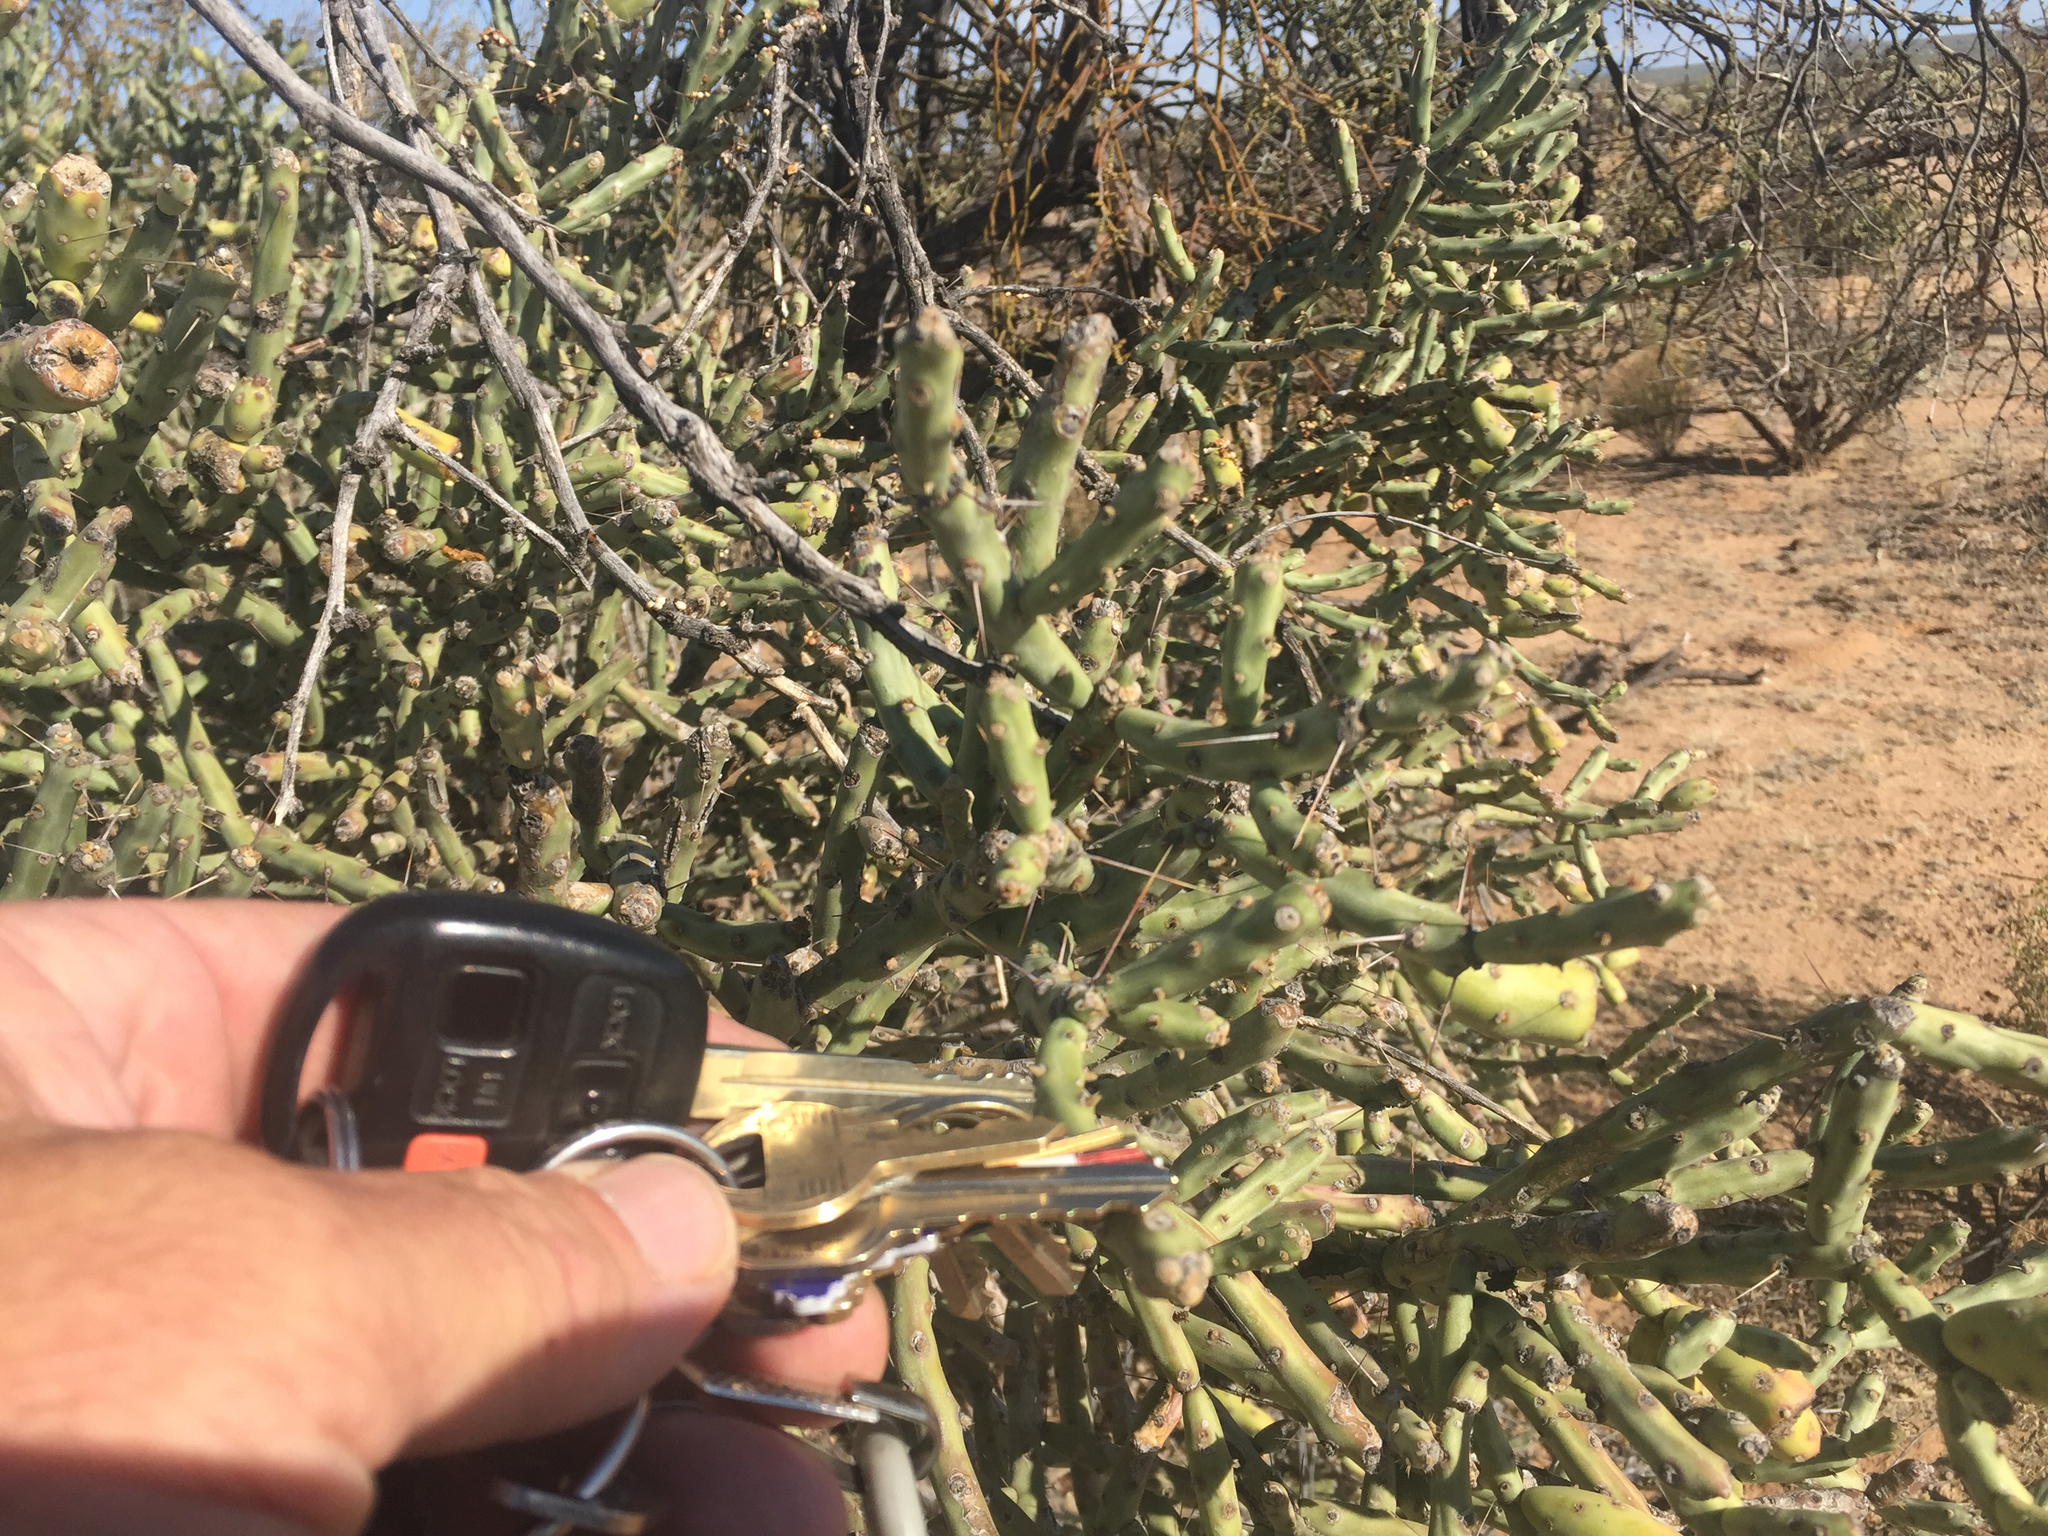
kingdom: Plantae
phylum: Tracheophyta
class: Magnoliopsida
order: Caryophyllales
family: Cactaceae
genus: Cylindropuntia
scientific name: Cylindropuntia arbuscula
